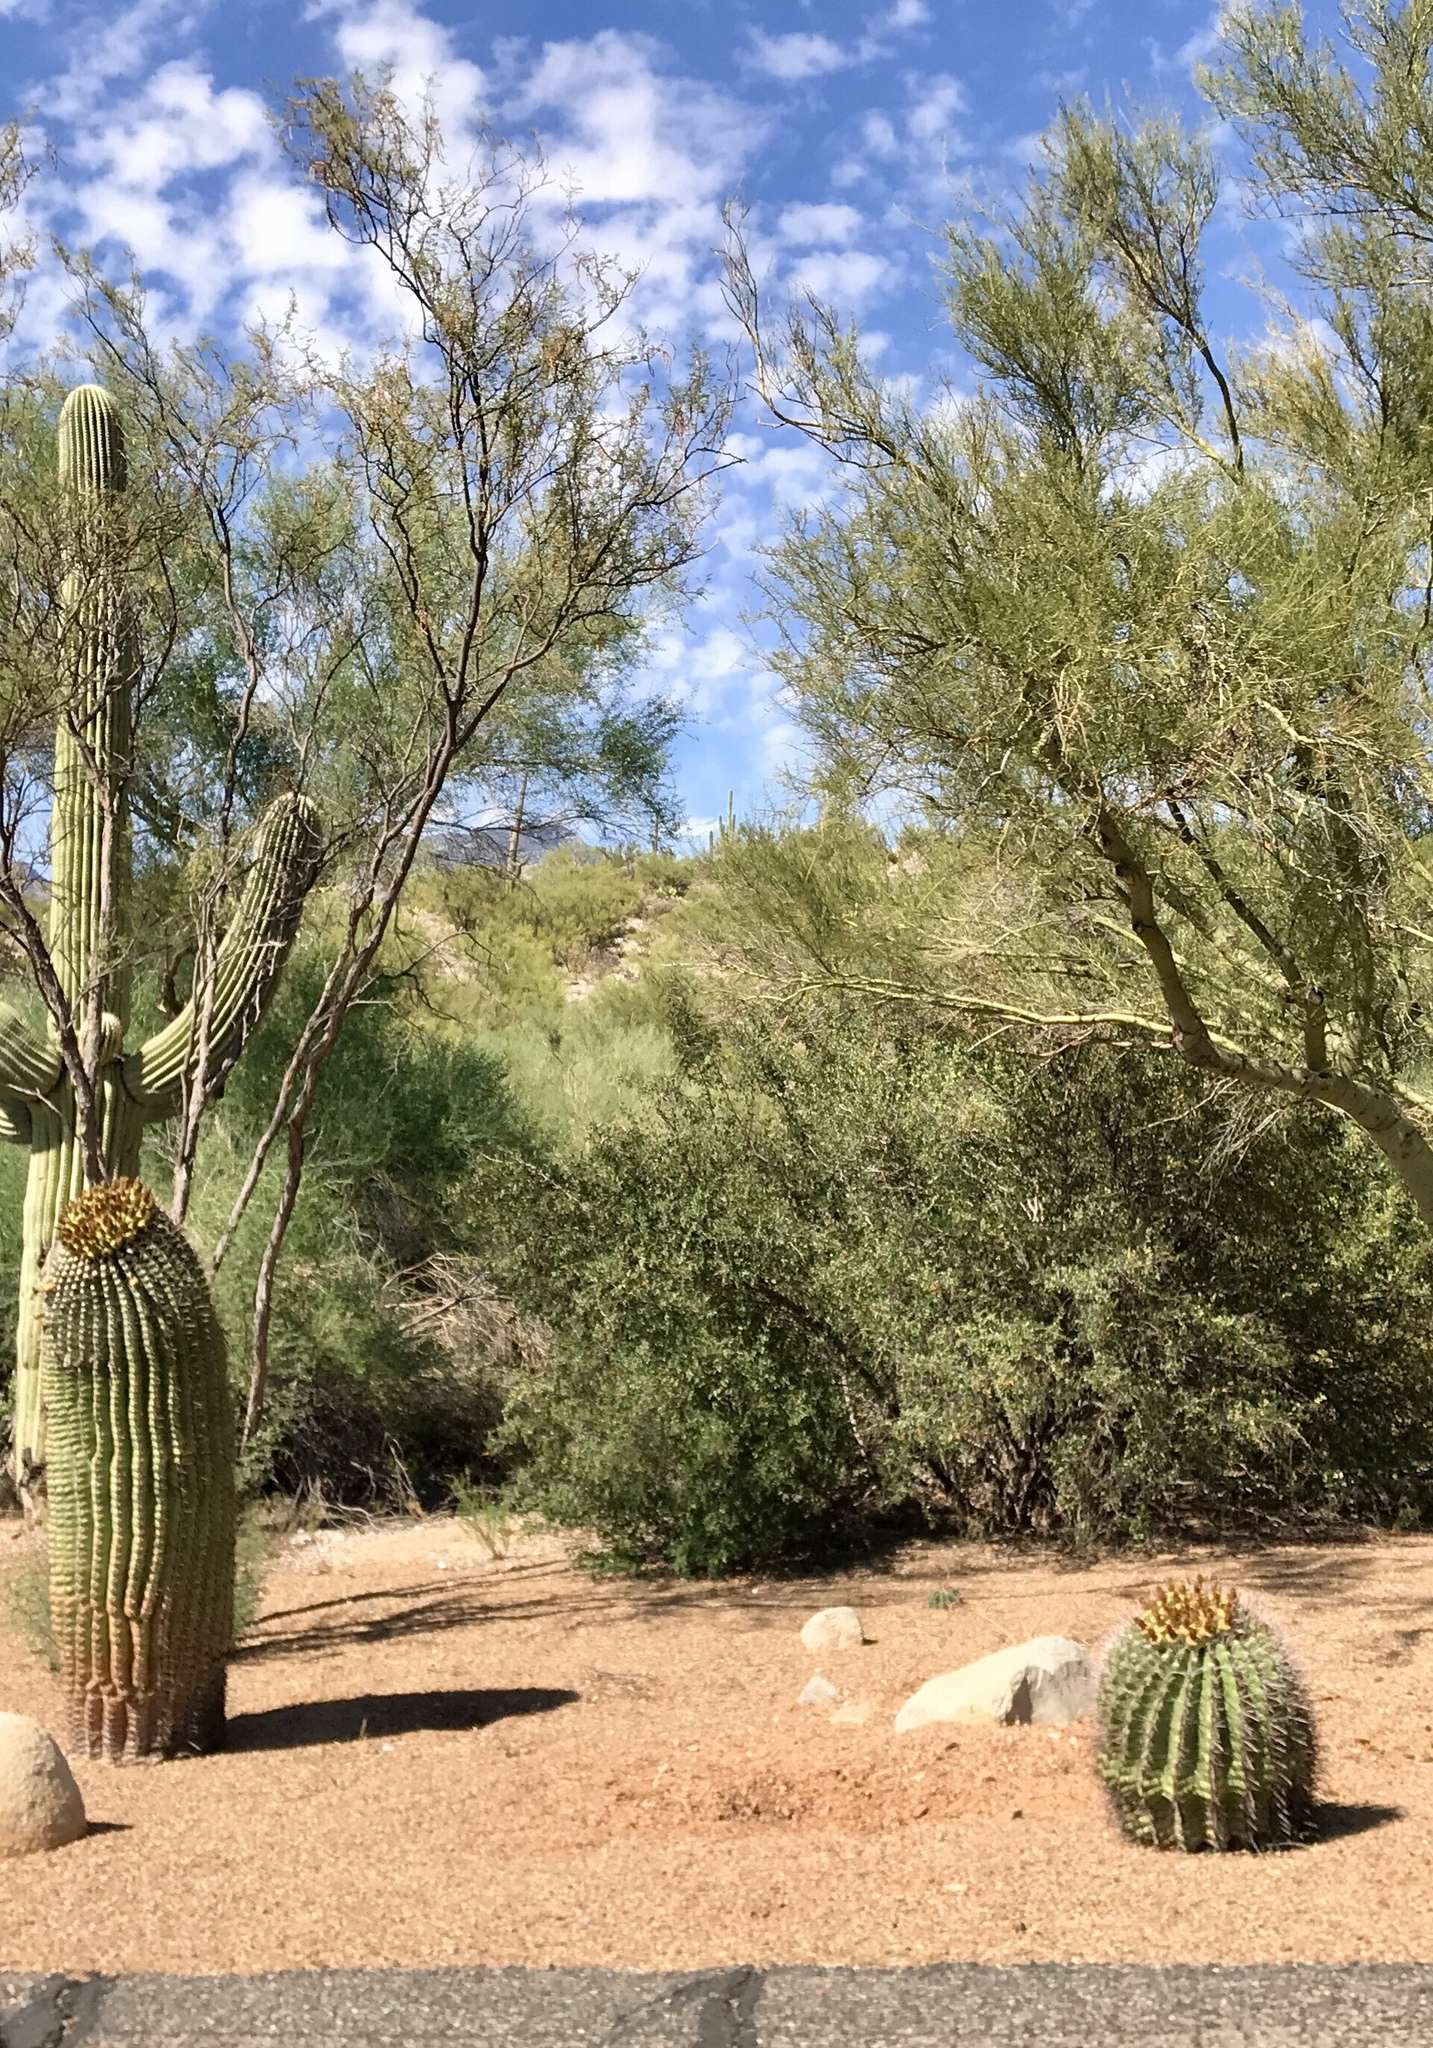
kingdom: Plantae
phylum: Tracheophyta
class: Magnoliopsida
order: Caryophyllales
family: Cactaceae
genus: Ferocactus
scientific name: Ferocactus wislizeni
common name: Candy barrel cactus
